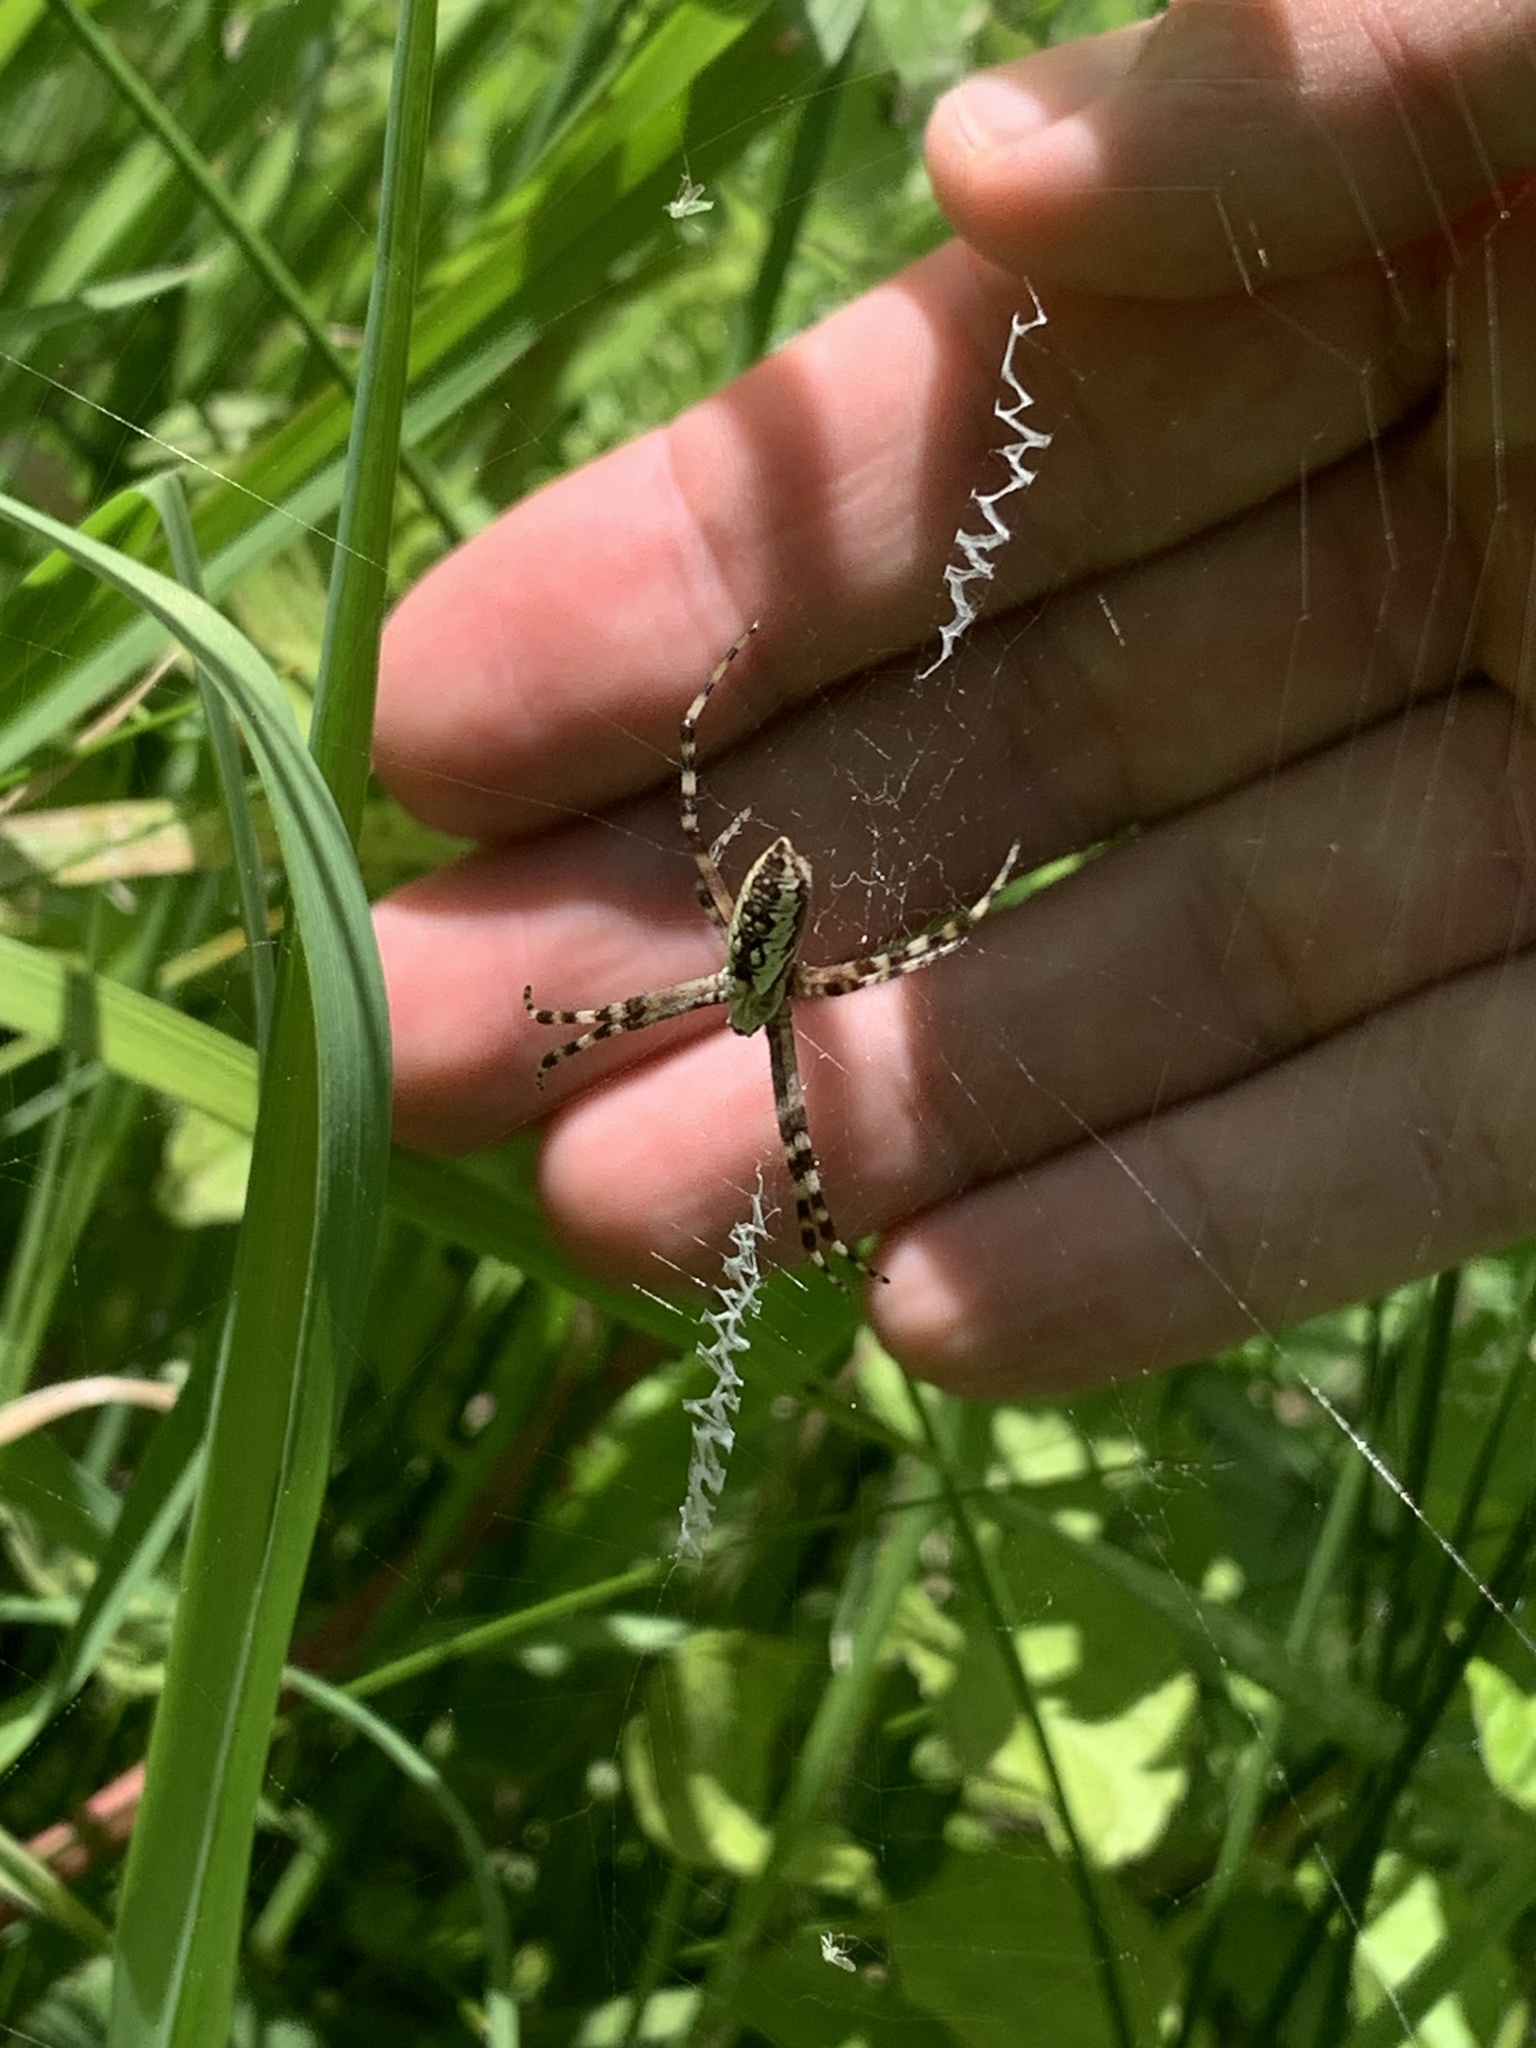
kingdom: Animalia
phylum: Arthropoda
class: Arachnida
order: Araneae
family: Araneidae
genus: Argiope
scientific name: Argiope aurantia
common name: Orb weavers
